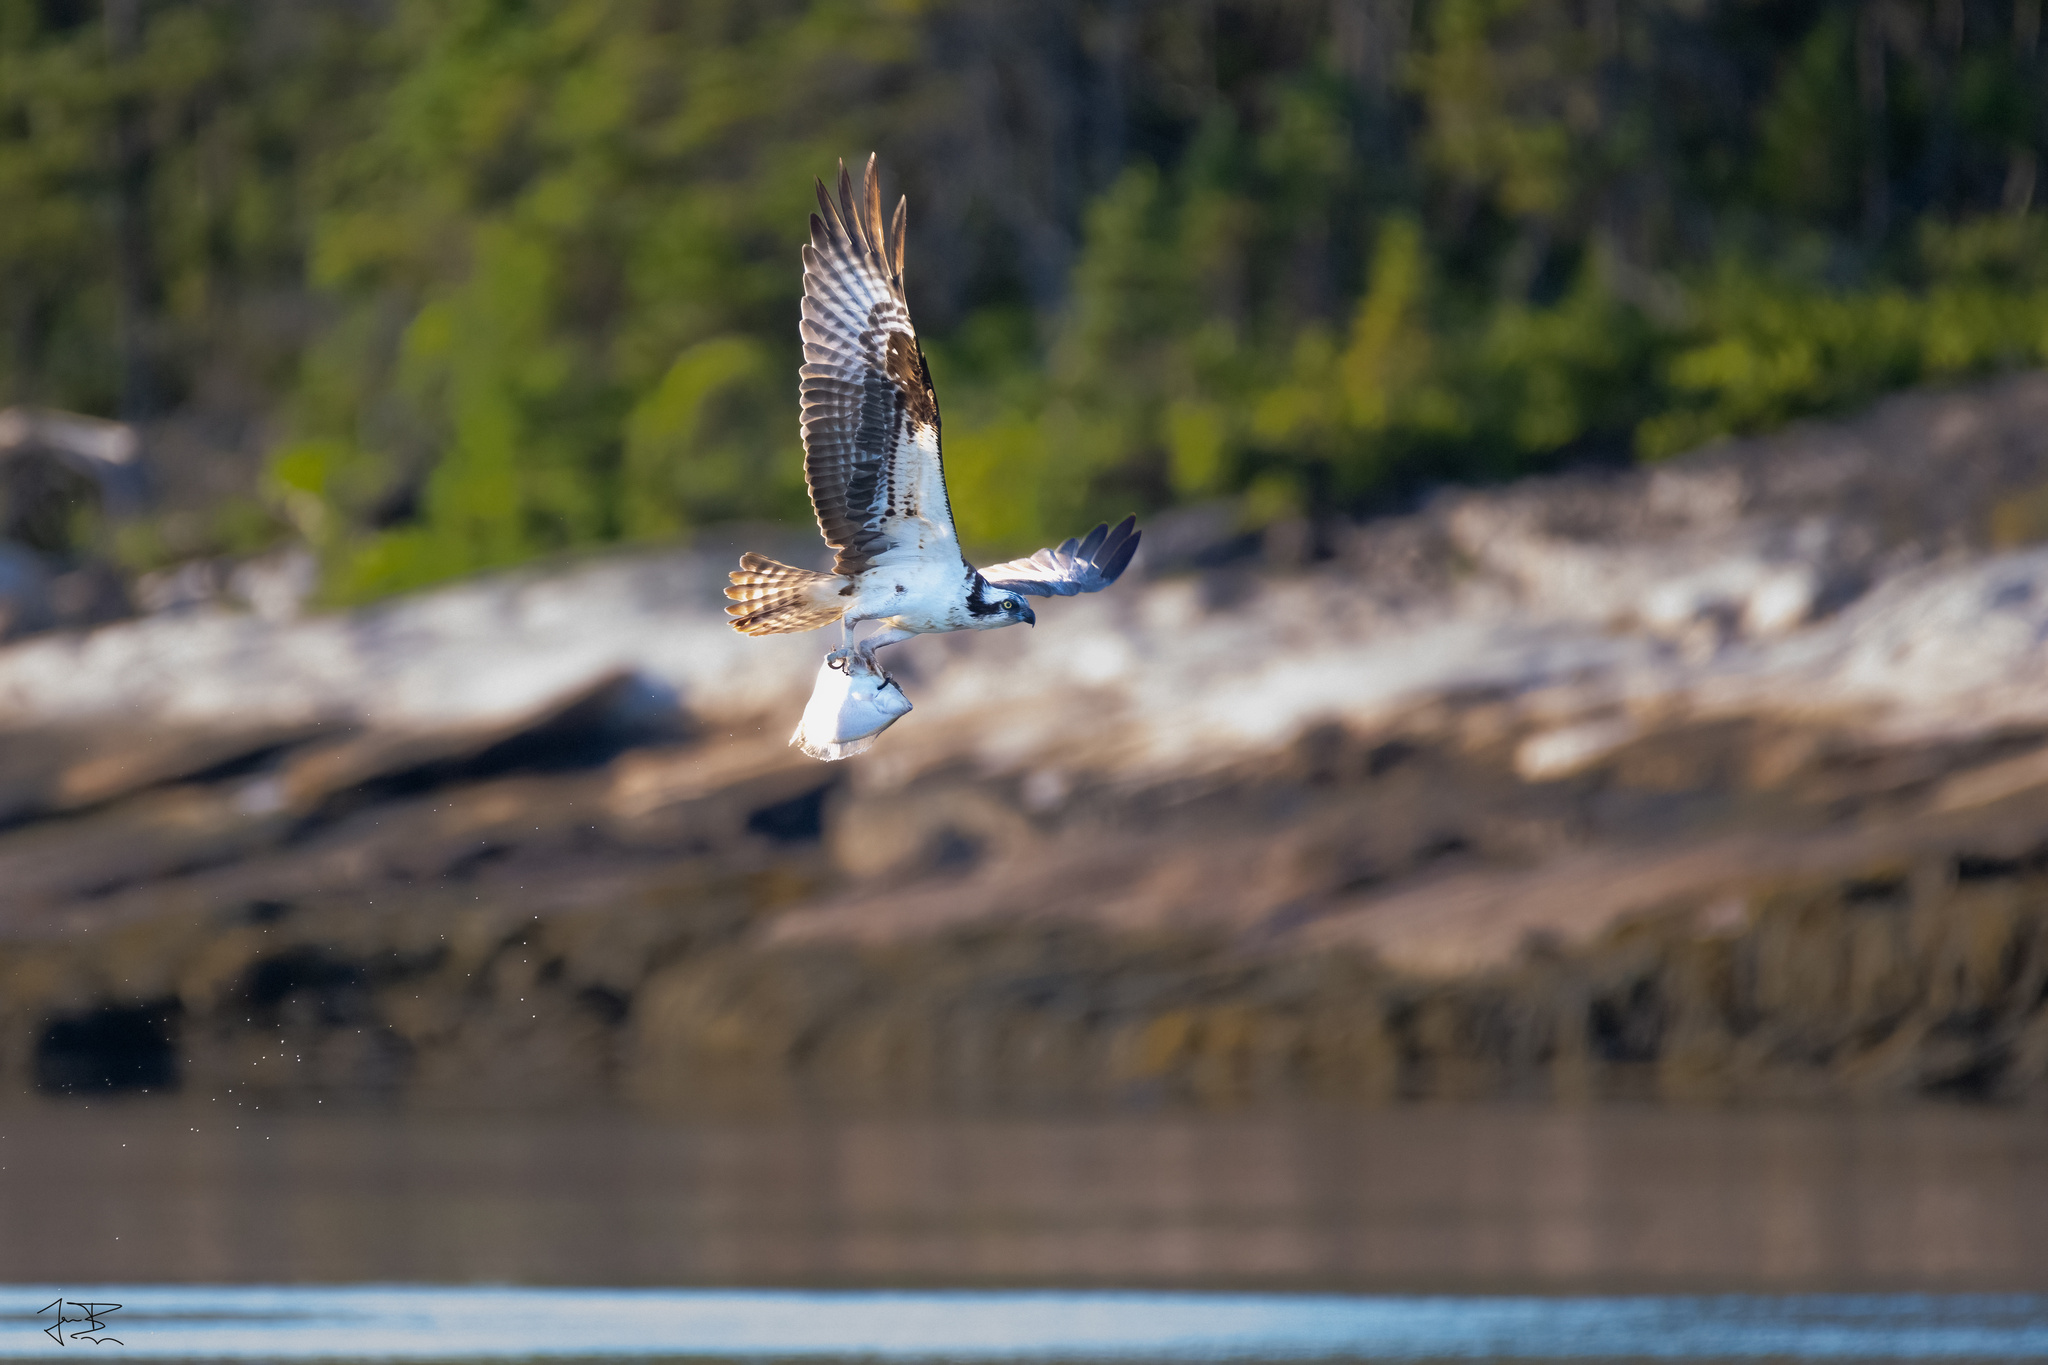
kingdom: Animalia
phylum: Chordata
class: Aves
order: Accipitriformes
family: Pandionidae
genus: Pandion
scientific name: Pandion haliaetus
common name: Osprey
